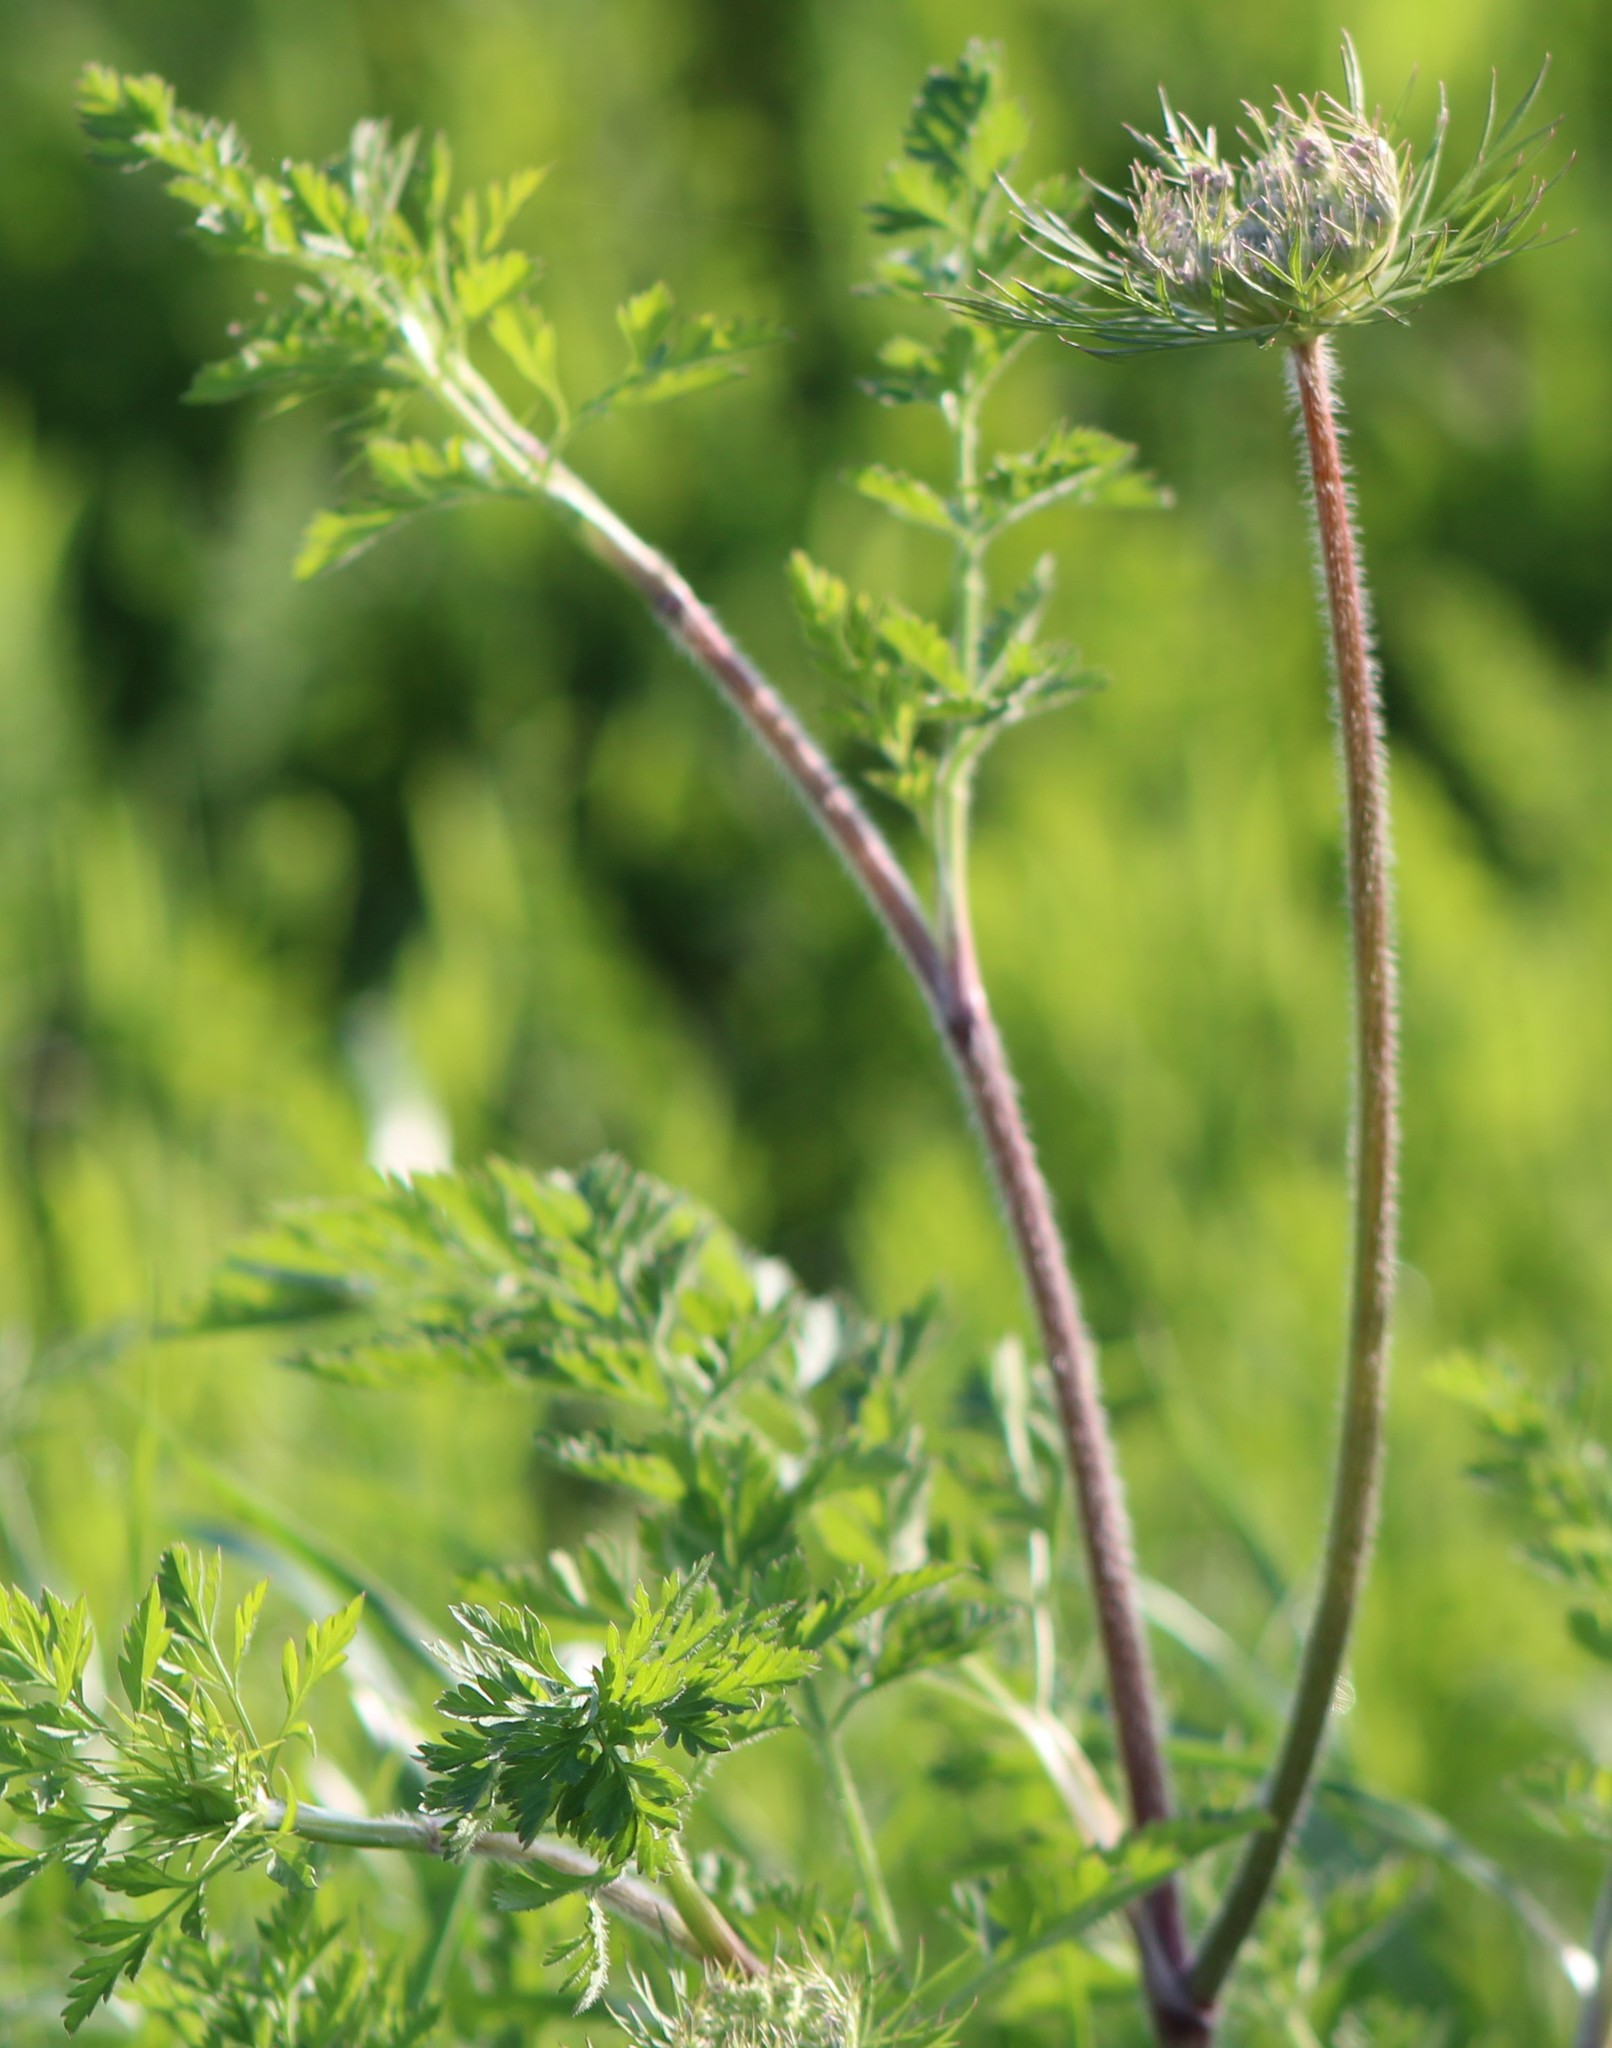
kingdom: Plantae
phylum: Tracheophyta
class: Magnoliopsida
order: Apiales
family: Apiaceae
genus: Daucus
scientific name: Daucus carota
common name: Wild carrot
